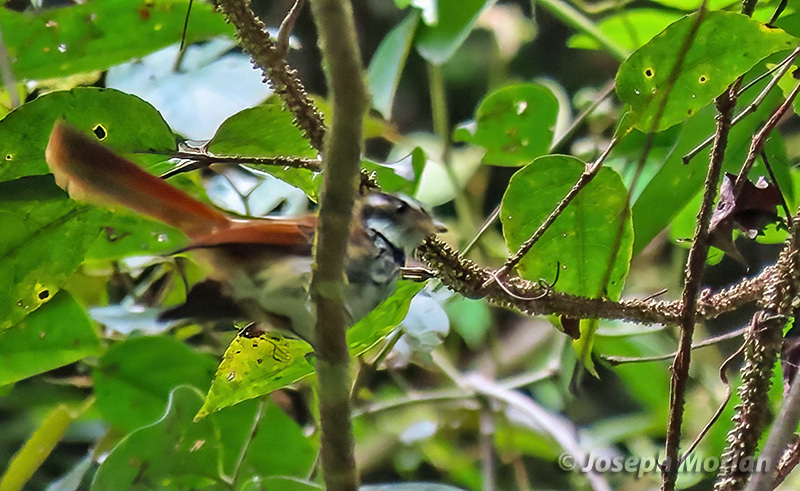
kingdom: Animalia
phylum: Chordata
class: Aves
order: Passeriformes
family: Rhipiduridae
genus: Rhipidura
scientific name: Rhipidura dedemi
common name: Streak-breasted fantail
